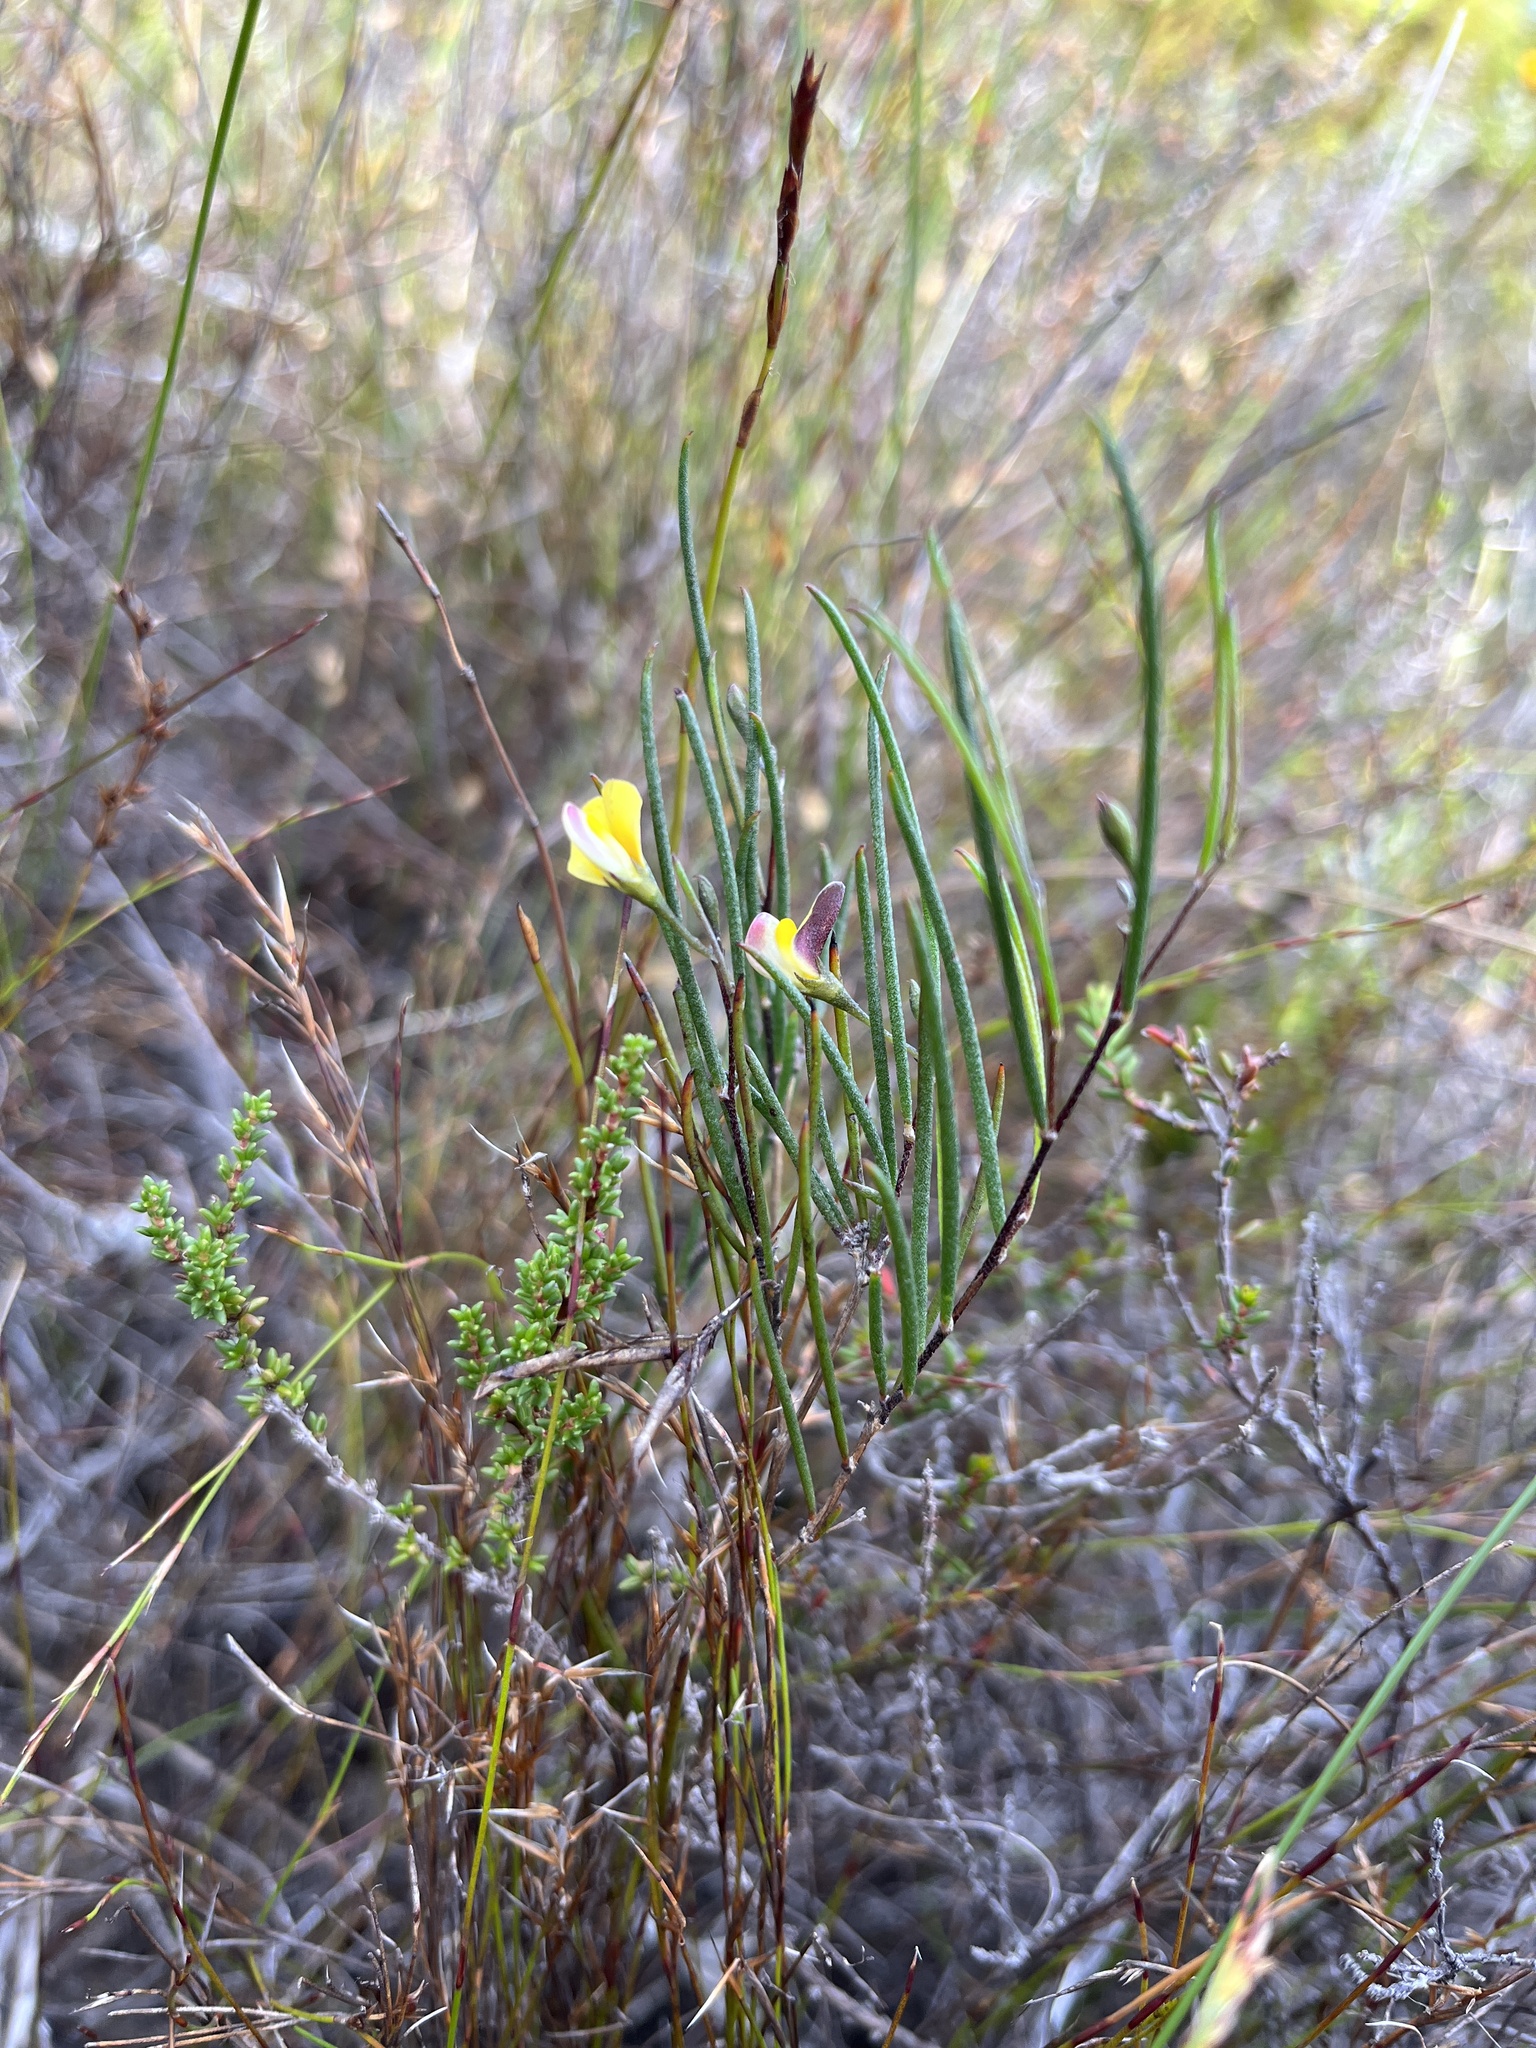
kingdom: Plantae
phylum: Tracheophyta
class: Magnoliopsida
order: Fabales
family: Fabaceae
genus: Aspalathus
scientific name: Aspalathus lebeckioides
